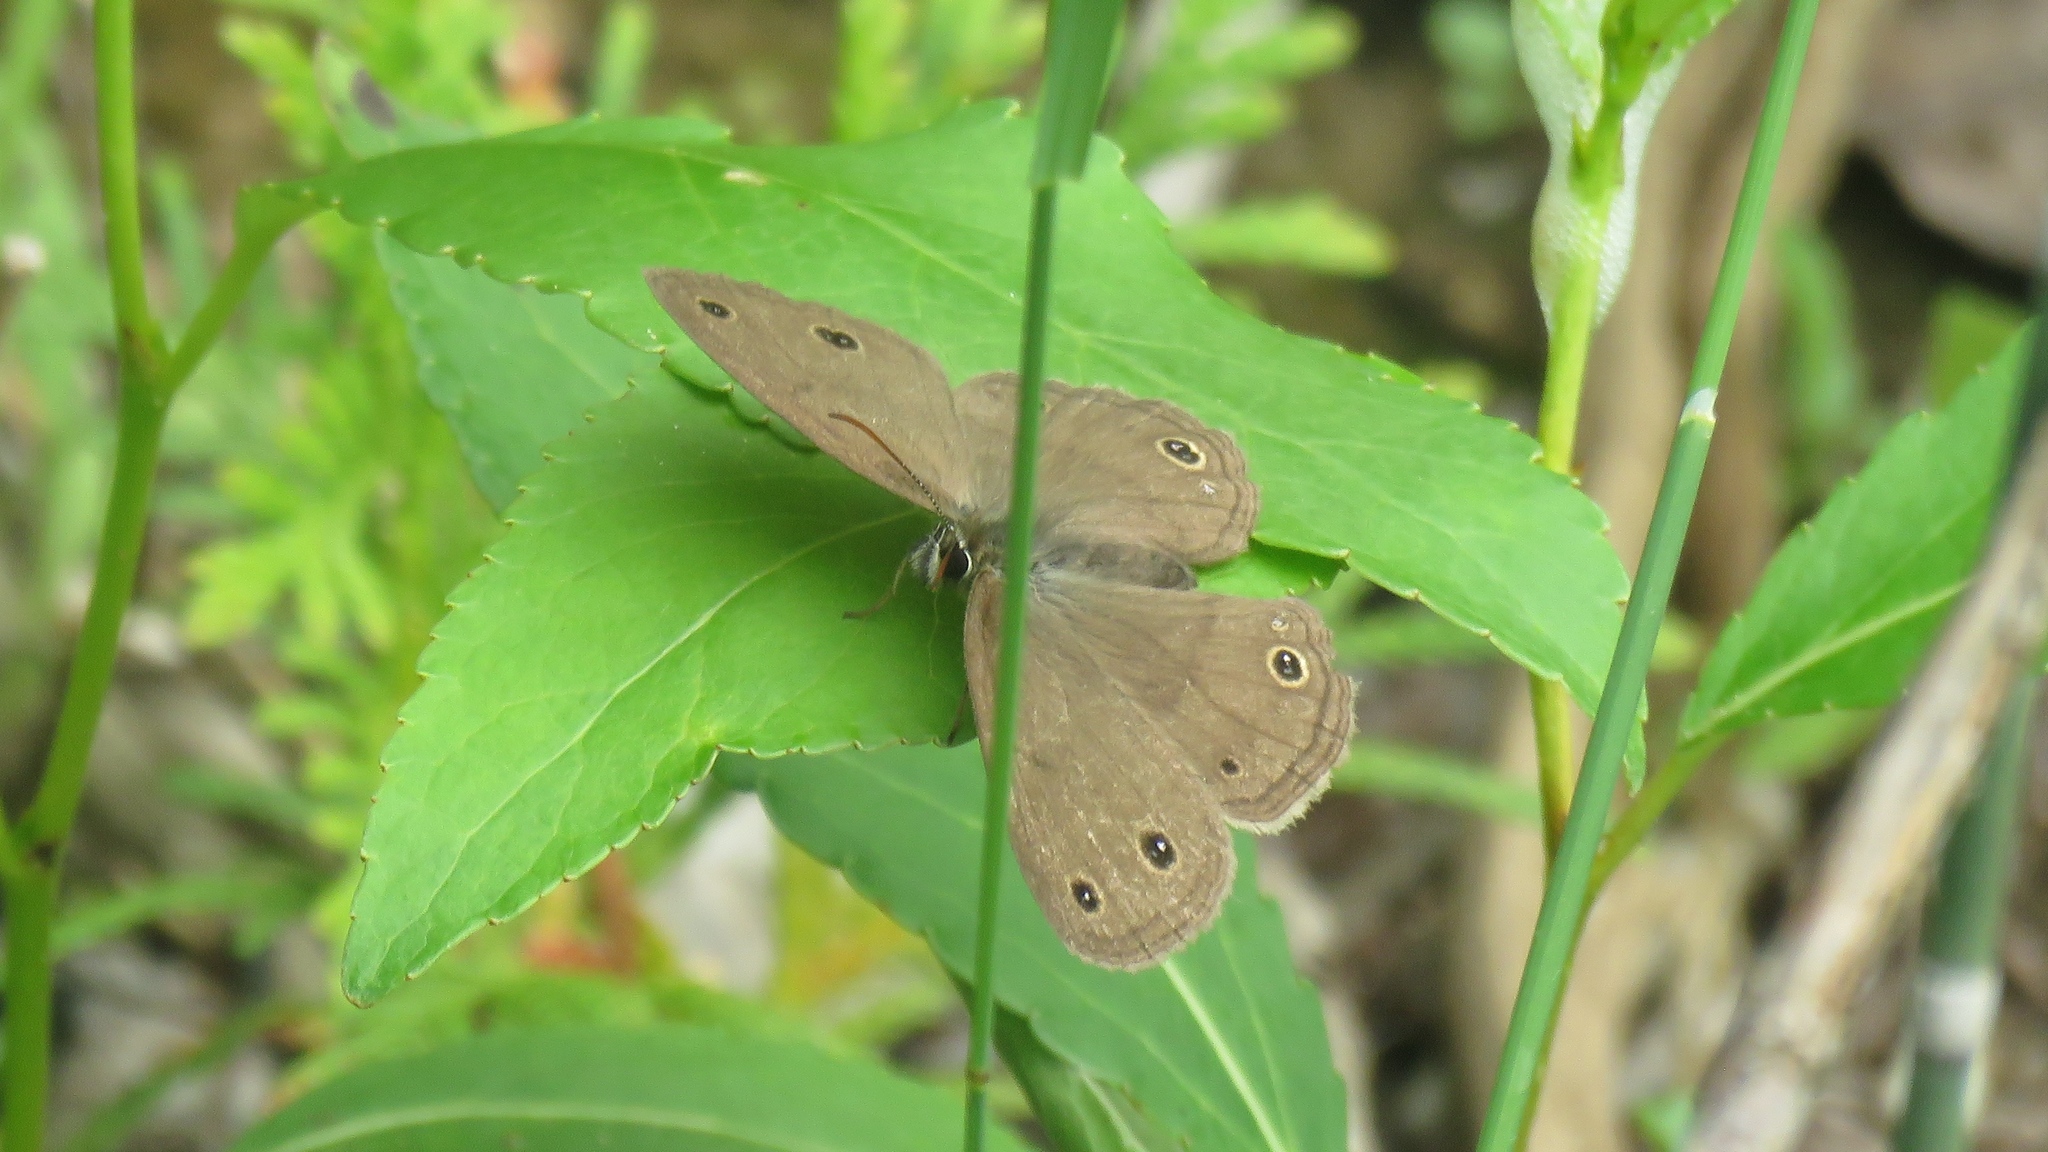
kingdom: Animalia
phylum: Arthropoda
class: Insecta
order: Lepidoptera
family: Nymphalidae
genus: Euptychia
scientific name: Euptychia cymela
